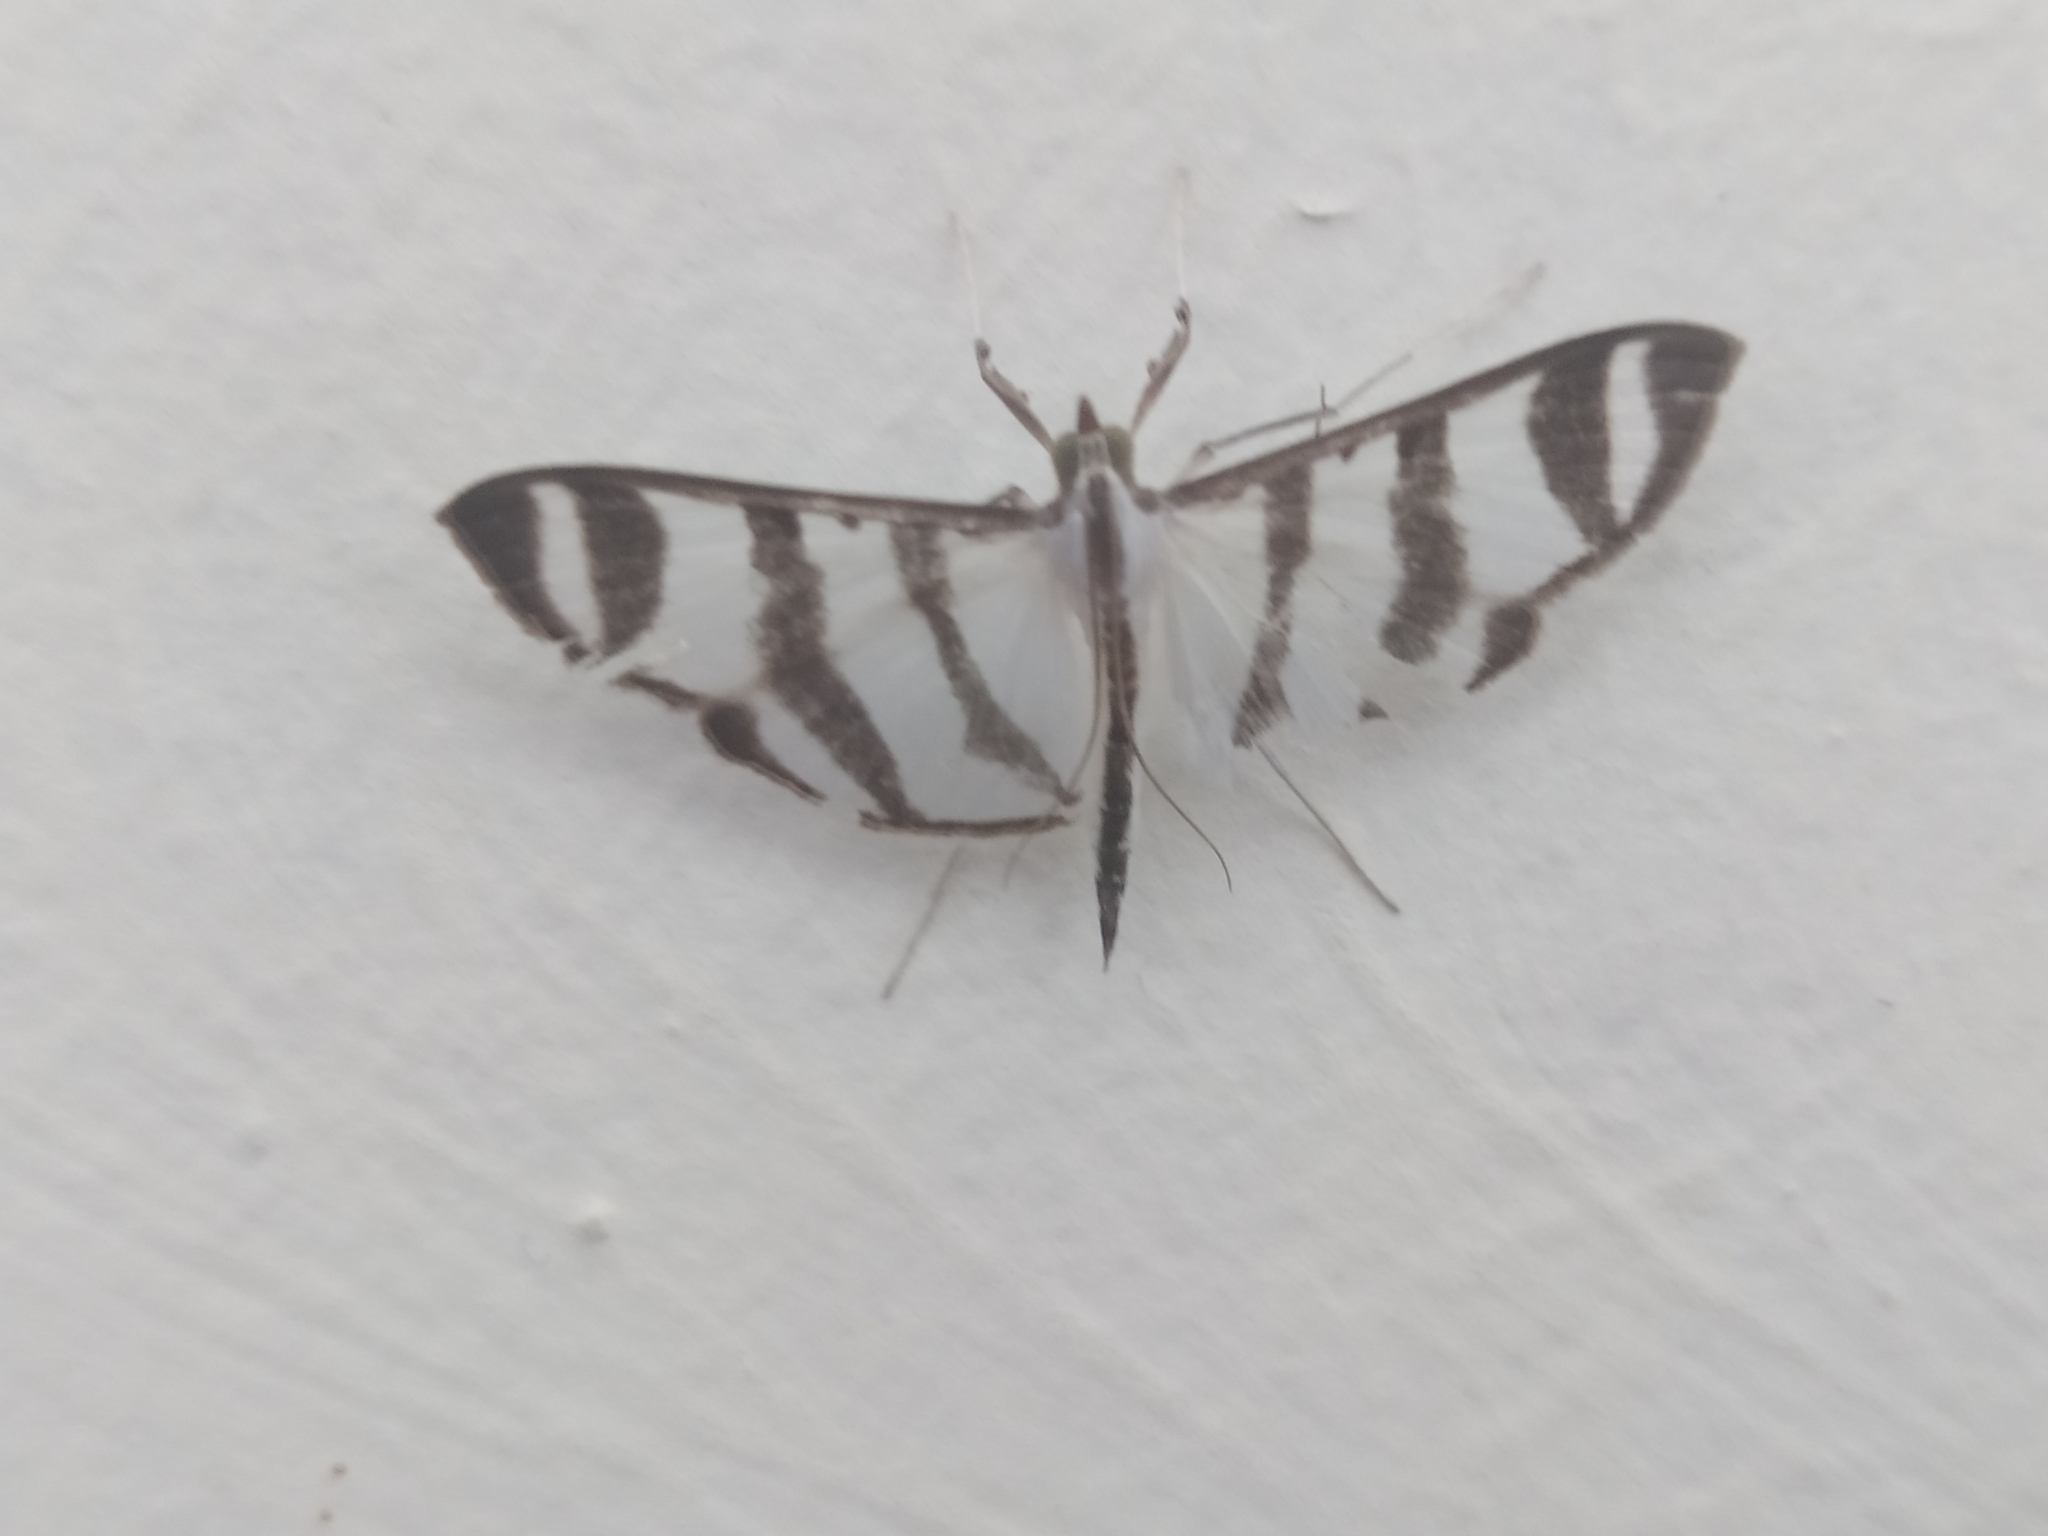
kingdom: Animalia
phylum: Arthropoda
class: Insecta
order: Lepidoptera
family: Crambidae
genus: Zebronia
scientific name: Zebronia phenice
